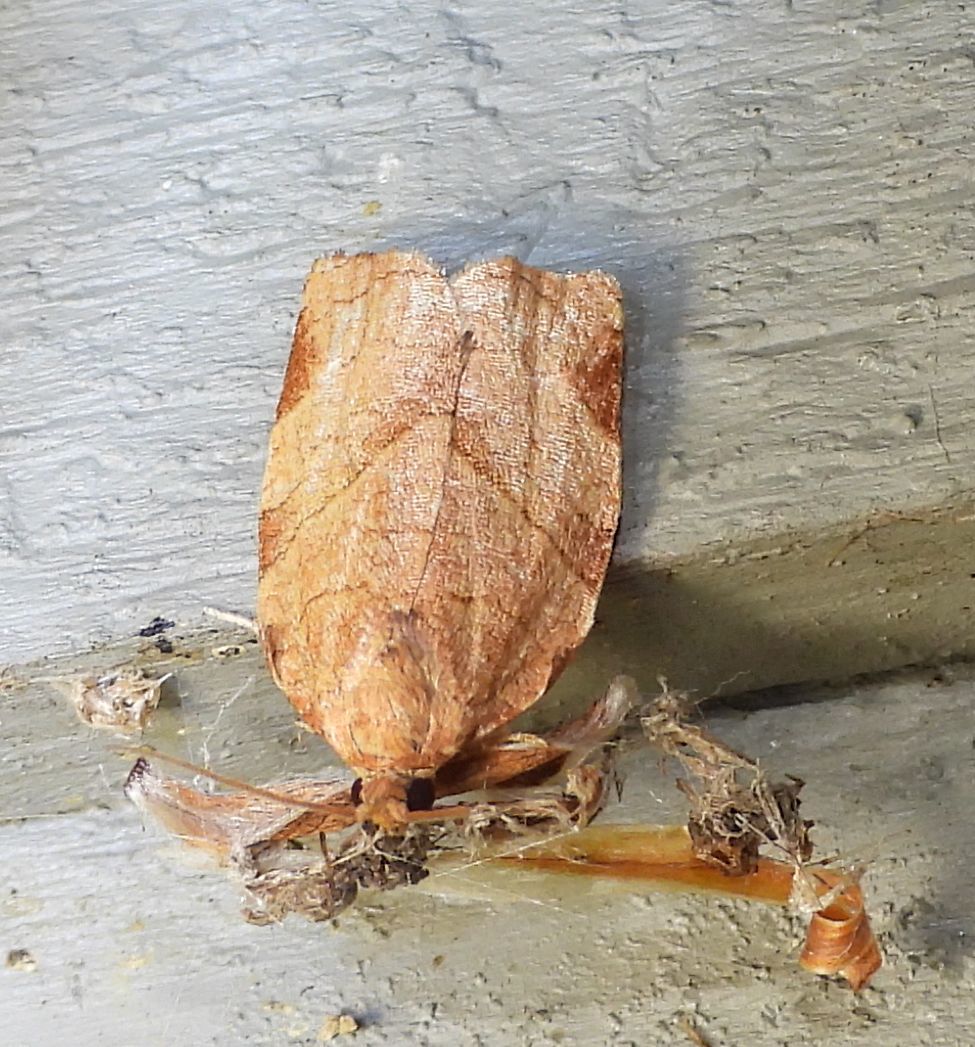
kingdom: Animalia
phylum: Arthropoda
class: Insecta
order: Lepidoptera
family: Tortricidae
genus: Choristoneura
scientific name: Choristoneura rosaceana
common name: Oblique-banded leafroller moth
